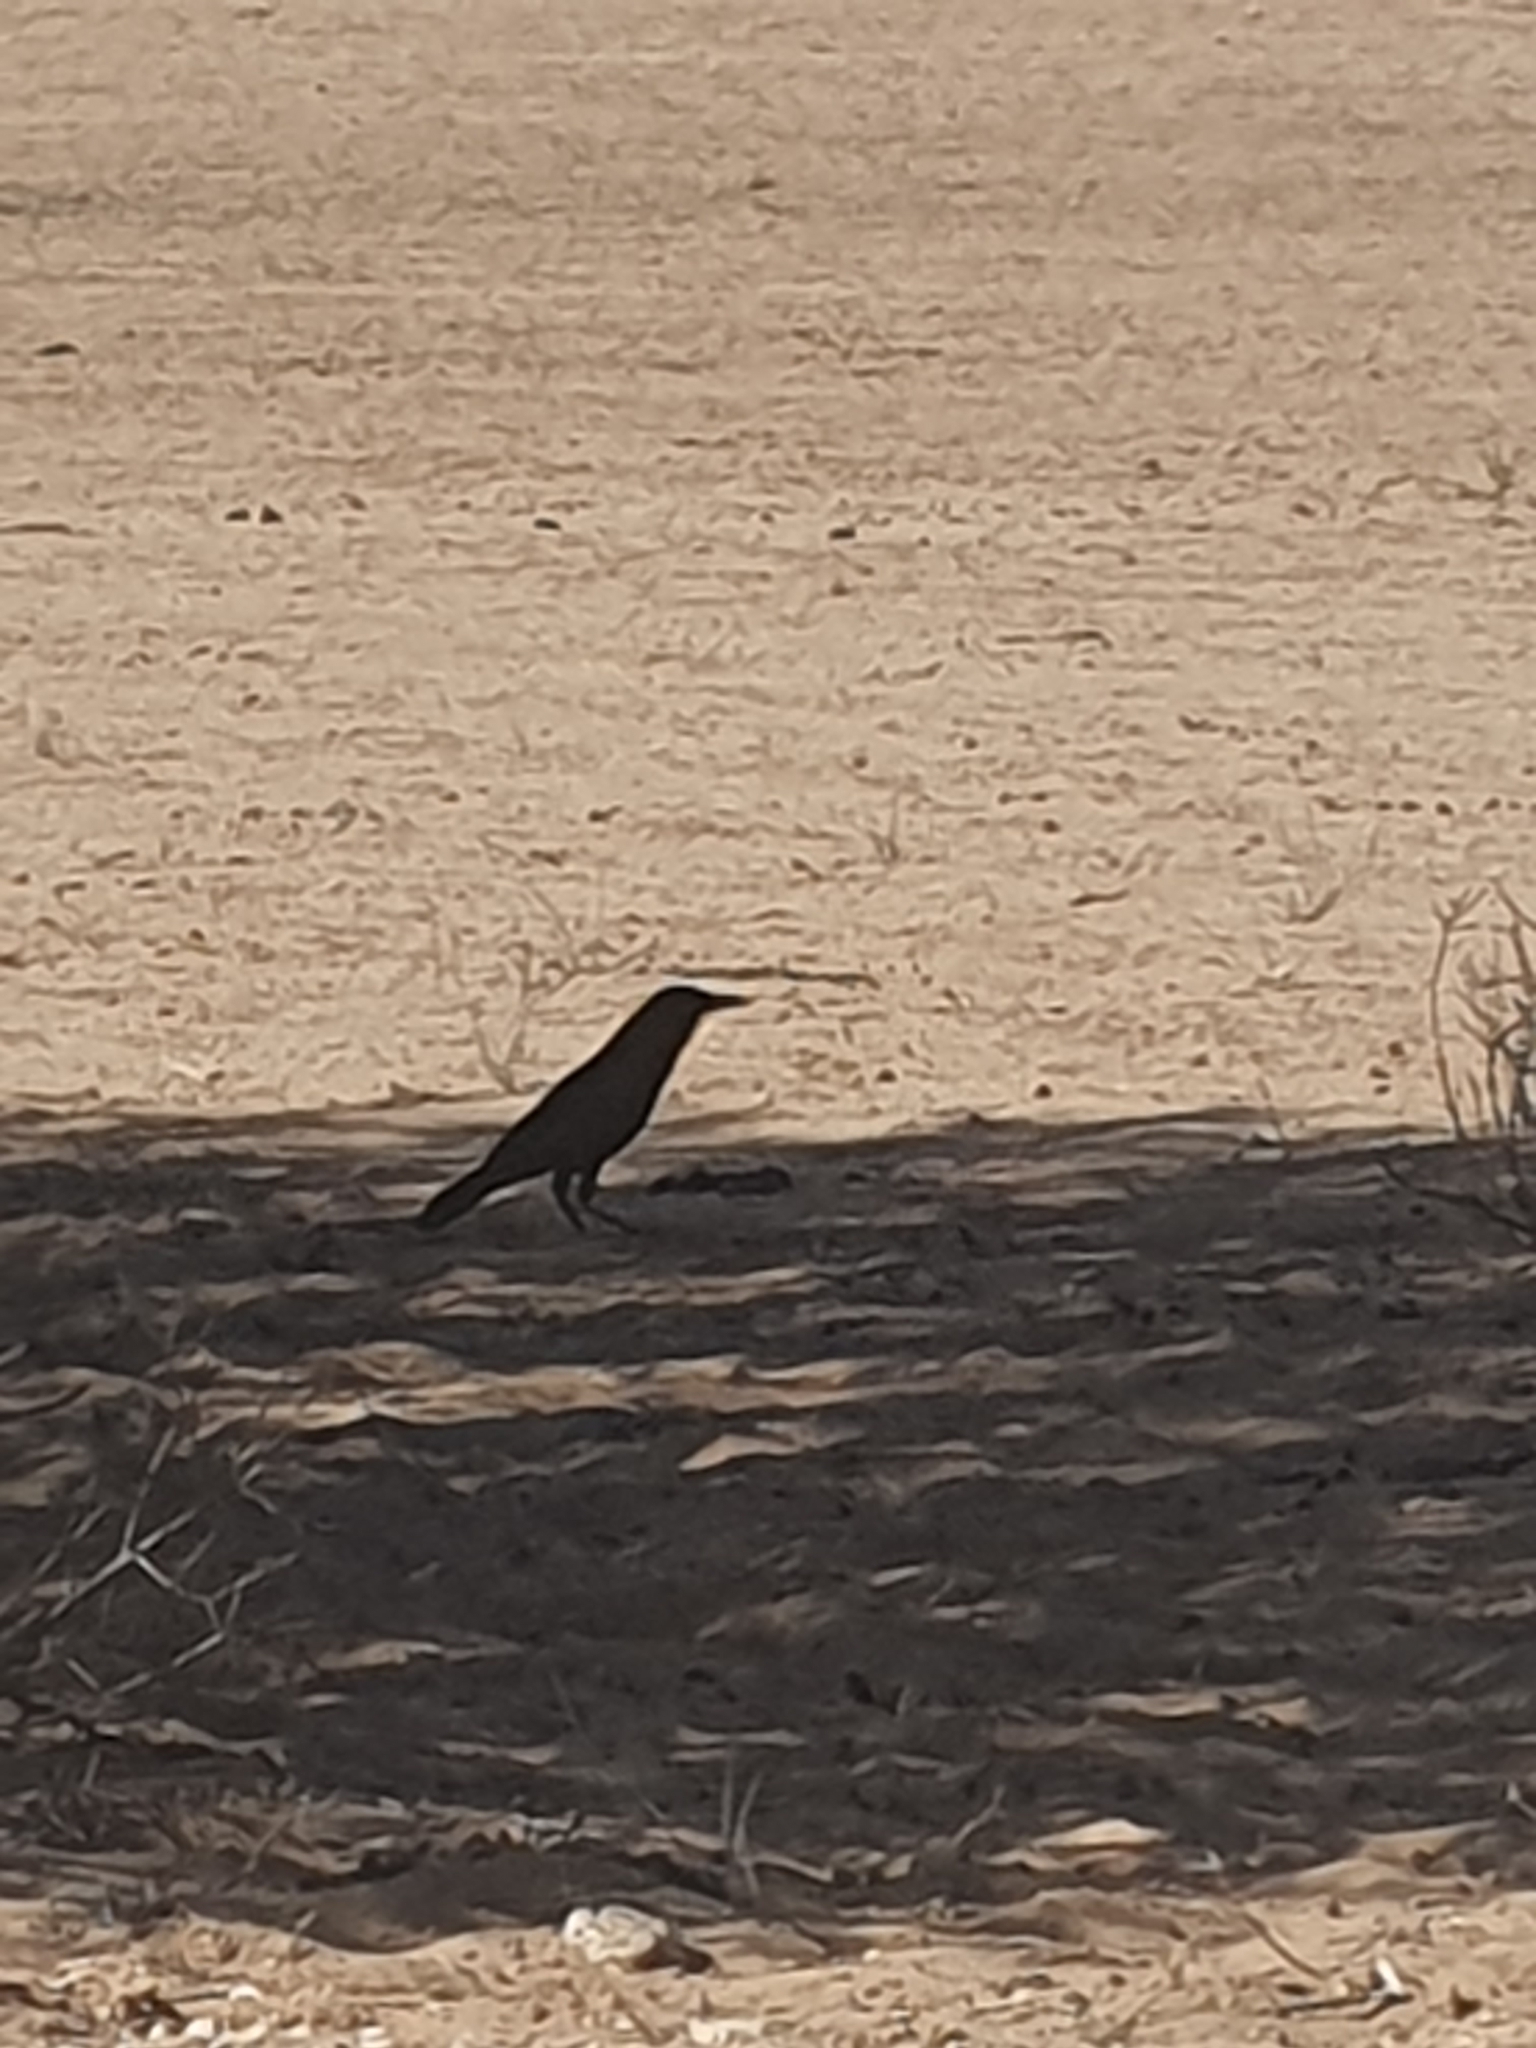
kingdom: Animalia
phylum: Chordata
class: Aves
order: Passeriformes
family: Corvidae
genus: Corvus
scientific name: Corvus capensis
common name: Cape crow
